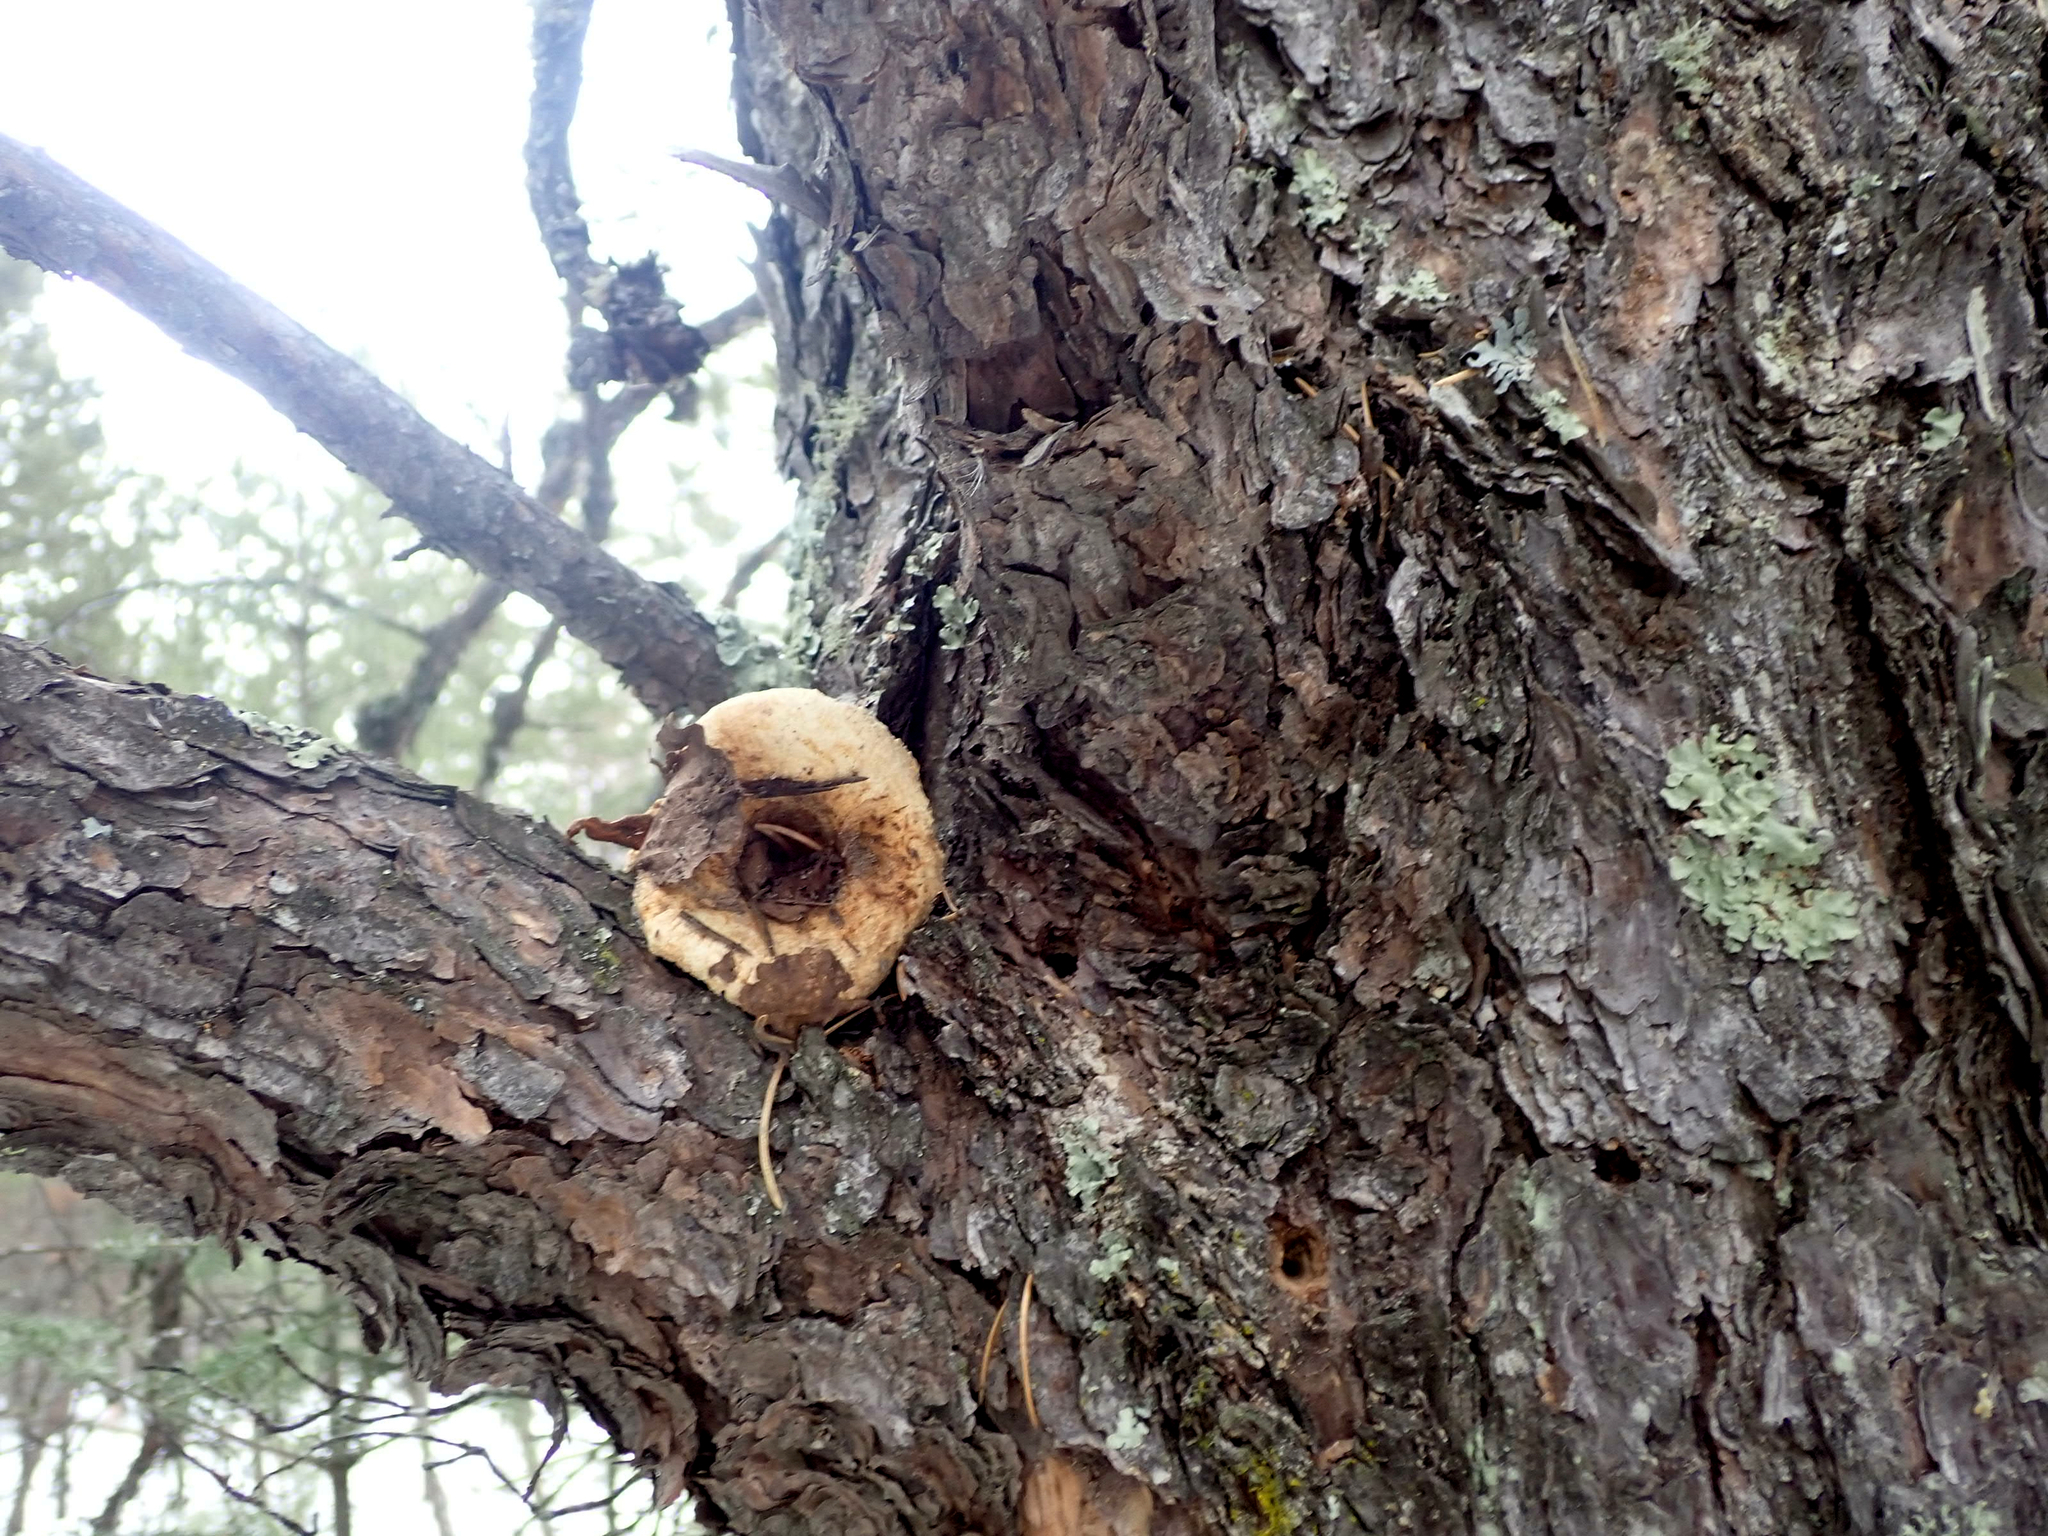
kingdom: Animalia
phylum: Chordata
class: Mammalia
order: Rodentia
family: Sciuridae
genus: Tamiasciurus
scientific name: Tamiasciurus hudsonicus
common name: Red squirrel
